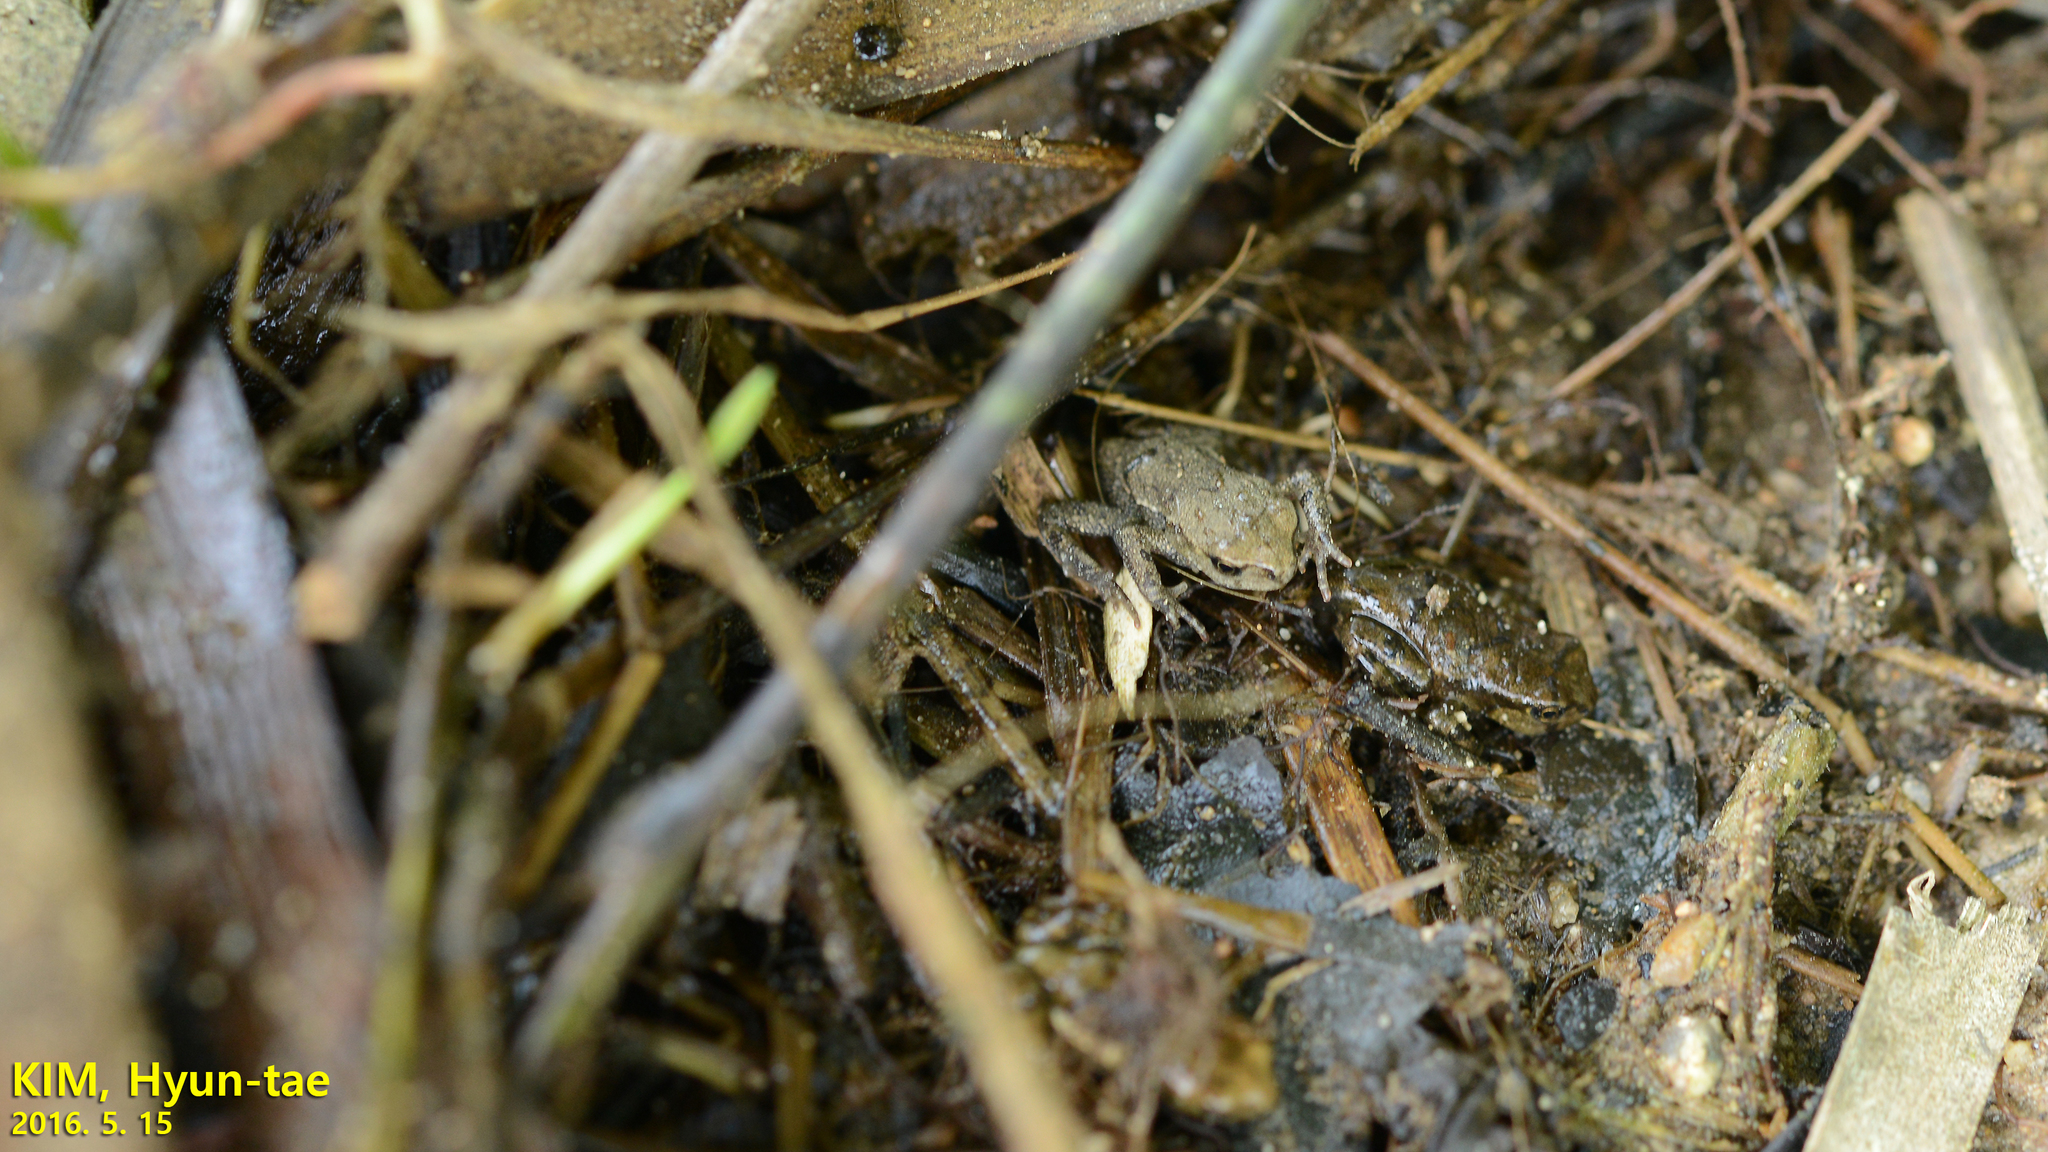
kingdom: Animalia
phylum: Chordata
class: Amphibia
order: Anura
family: Bufonidae
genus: Bufo
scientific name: Bufo gargarizans
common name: Asiatic toad
